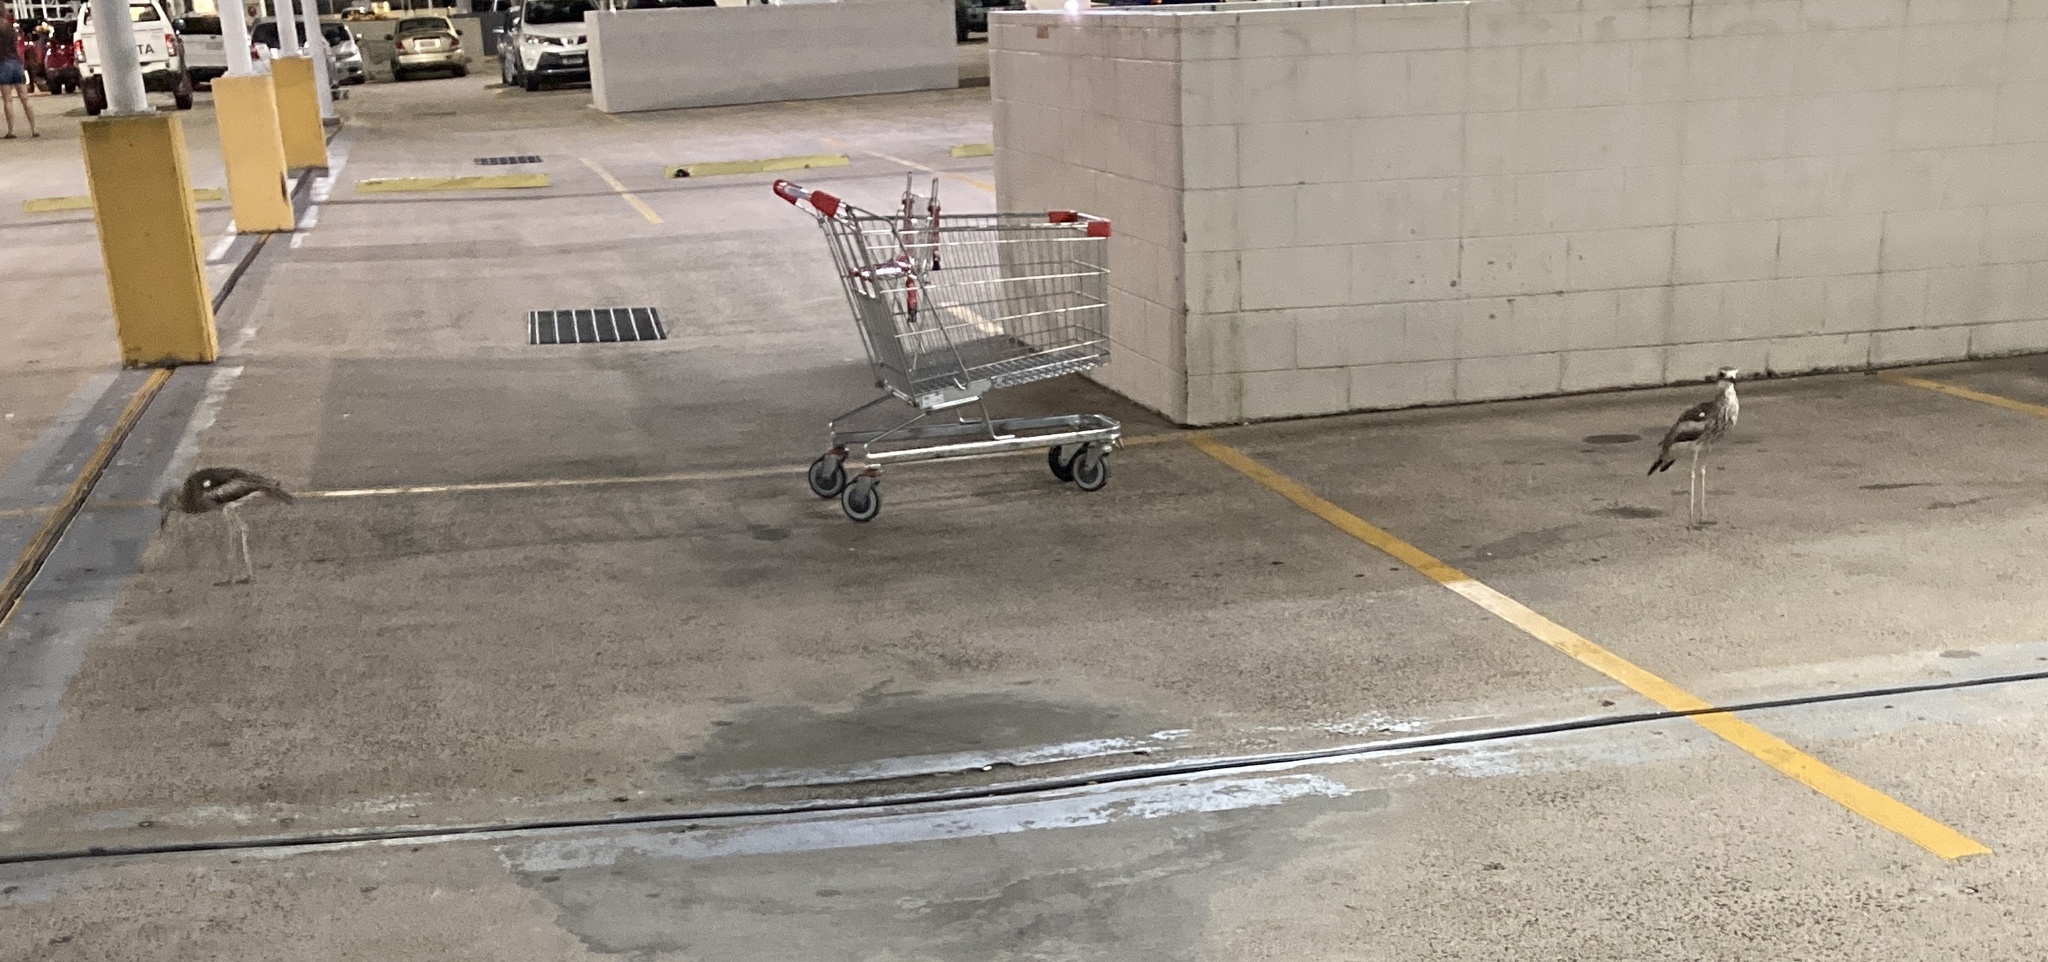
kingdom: Animalia
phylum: Chordata
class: Aves
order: Charadriiformes
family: Burhinidae
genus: Burhinus
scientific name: Burhinus grallarius
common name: Bush stone-curlew
